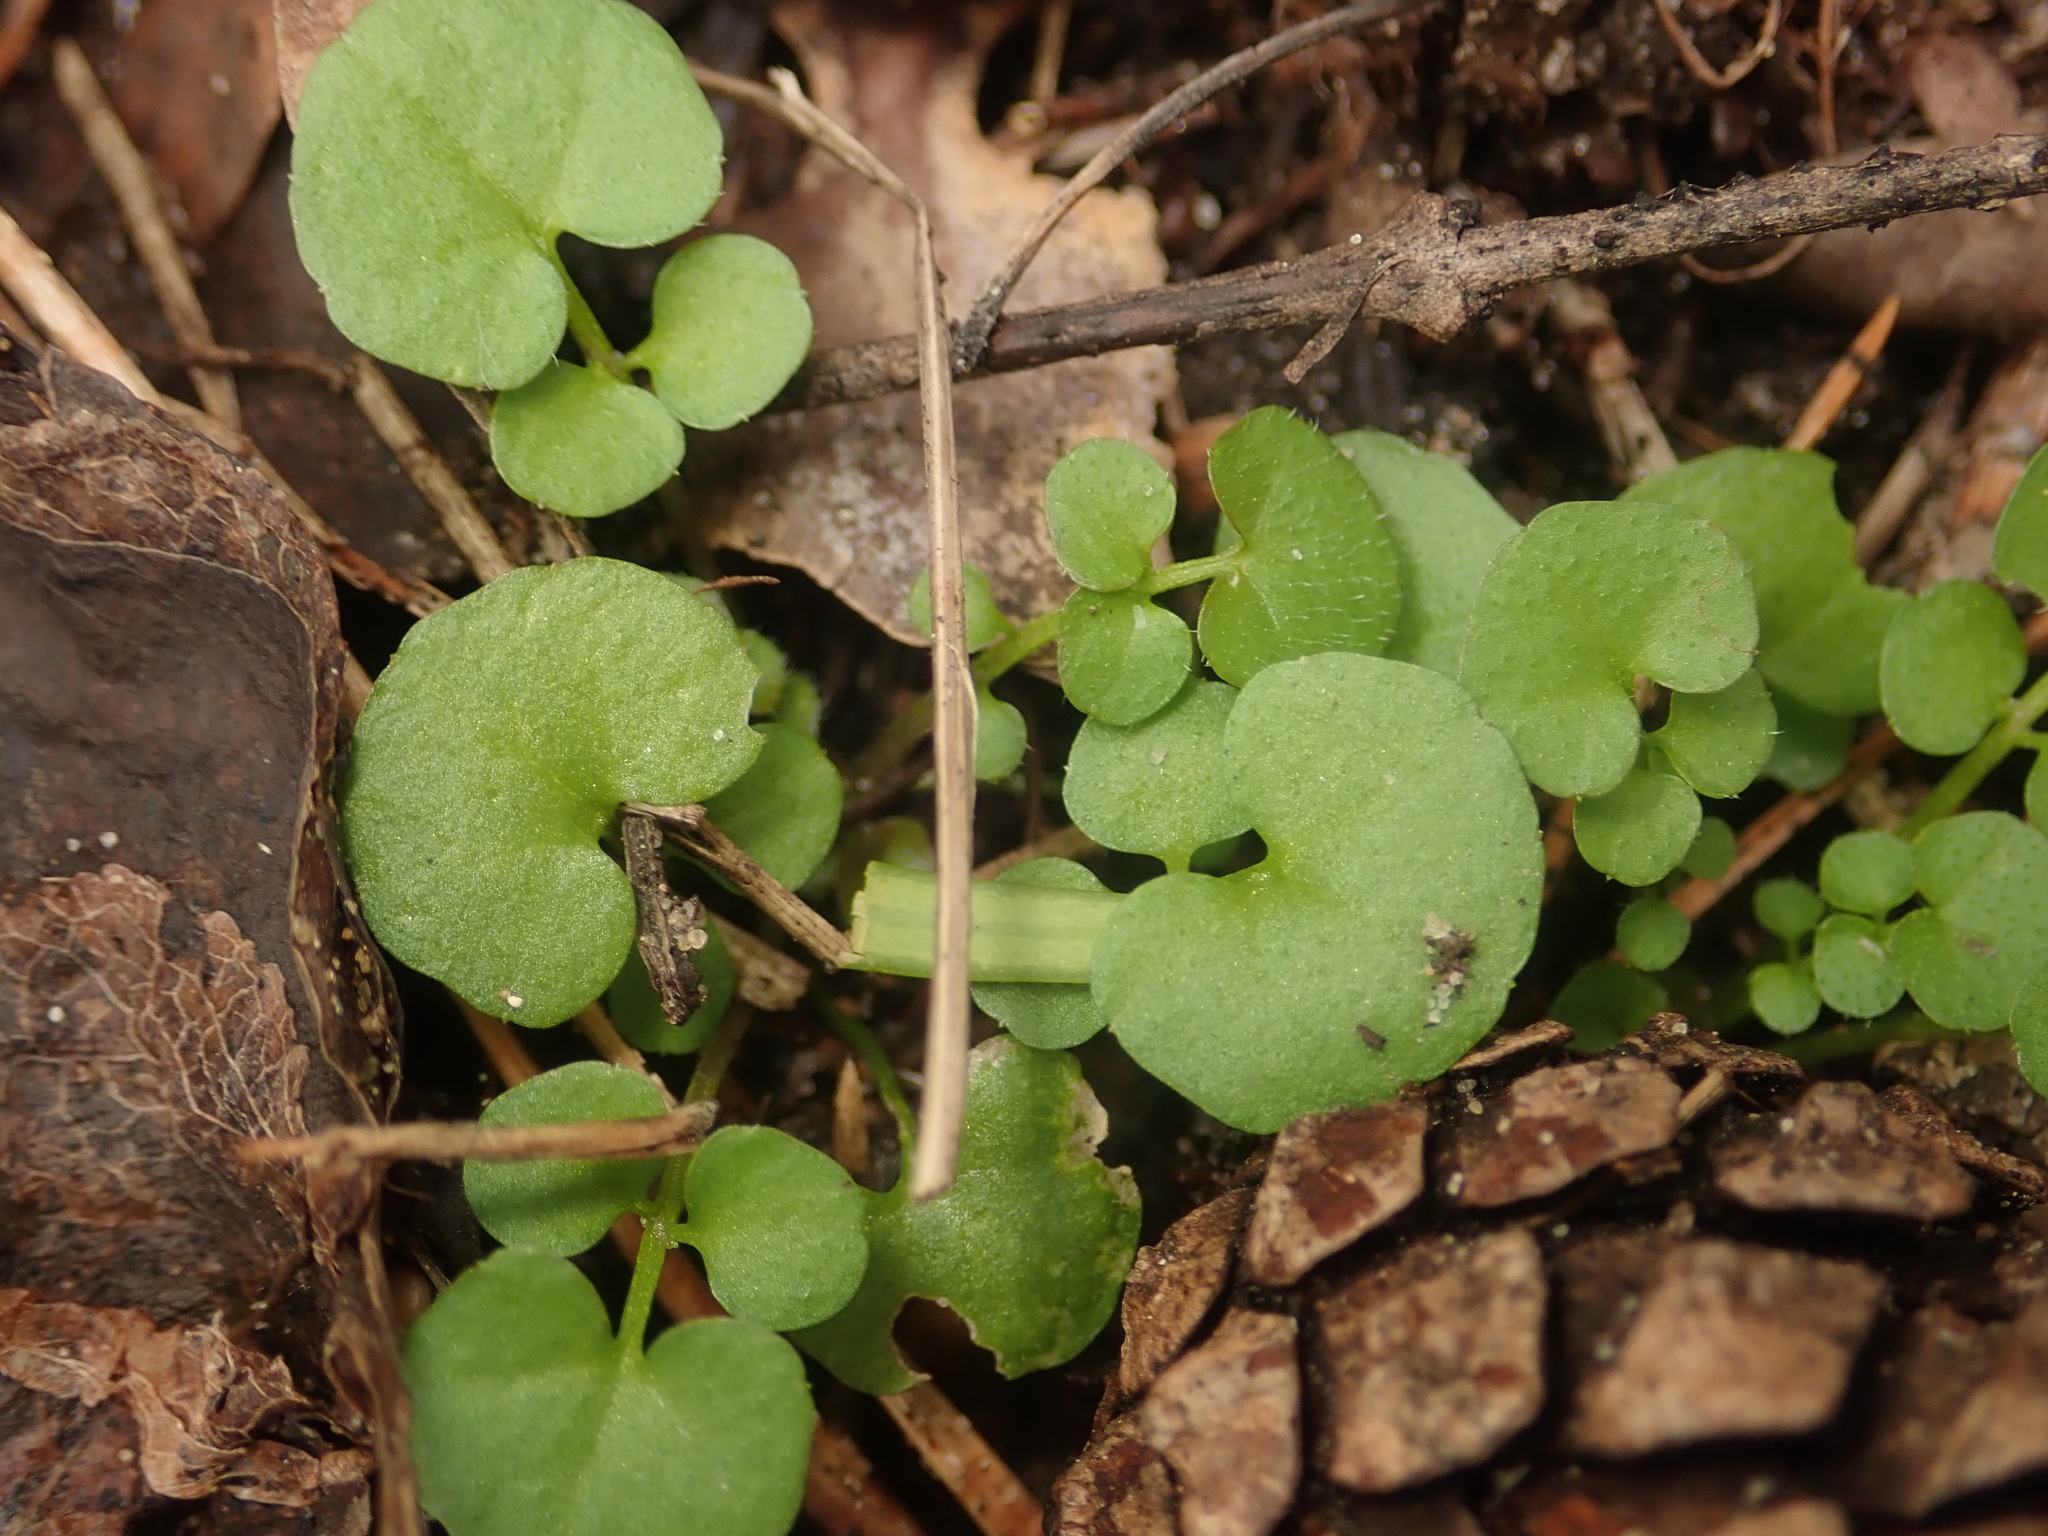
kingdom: Plantae
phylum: Tracheophyta
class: Magnoliopsida
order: Brassicales
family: Brassicaceae
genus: Cardamine
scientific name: Cardamine hirsuta
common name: Hairy bittercress
